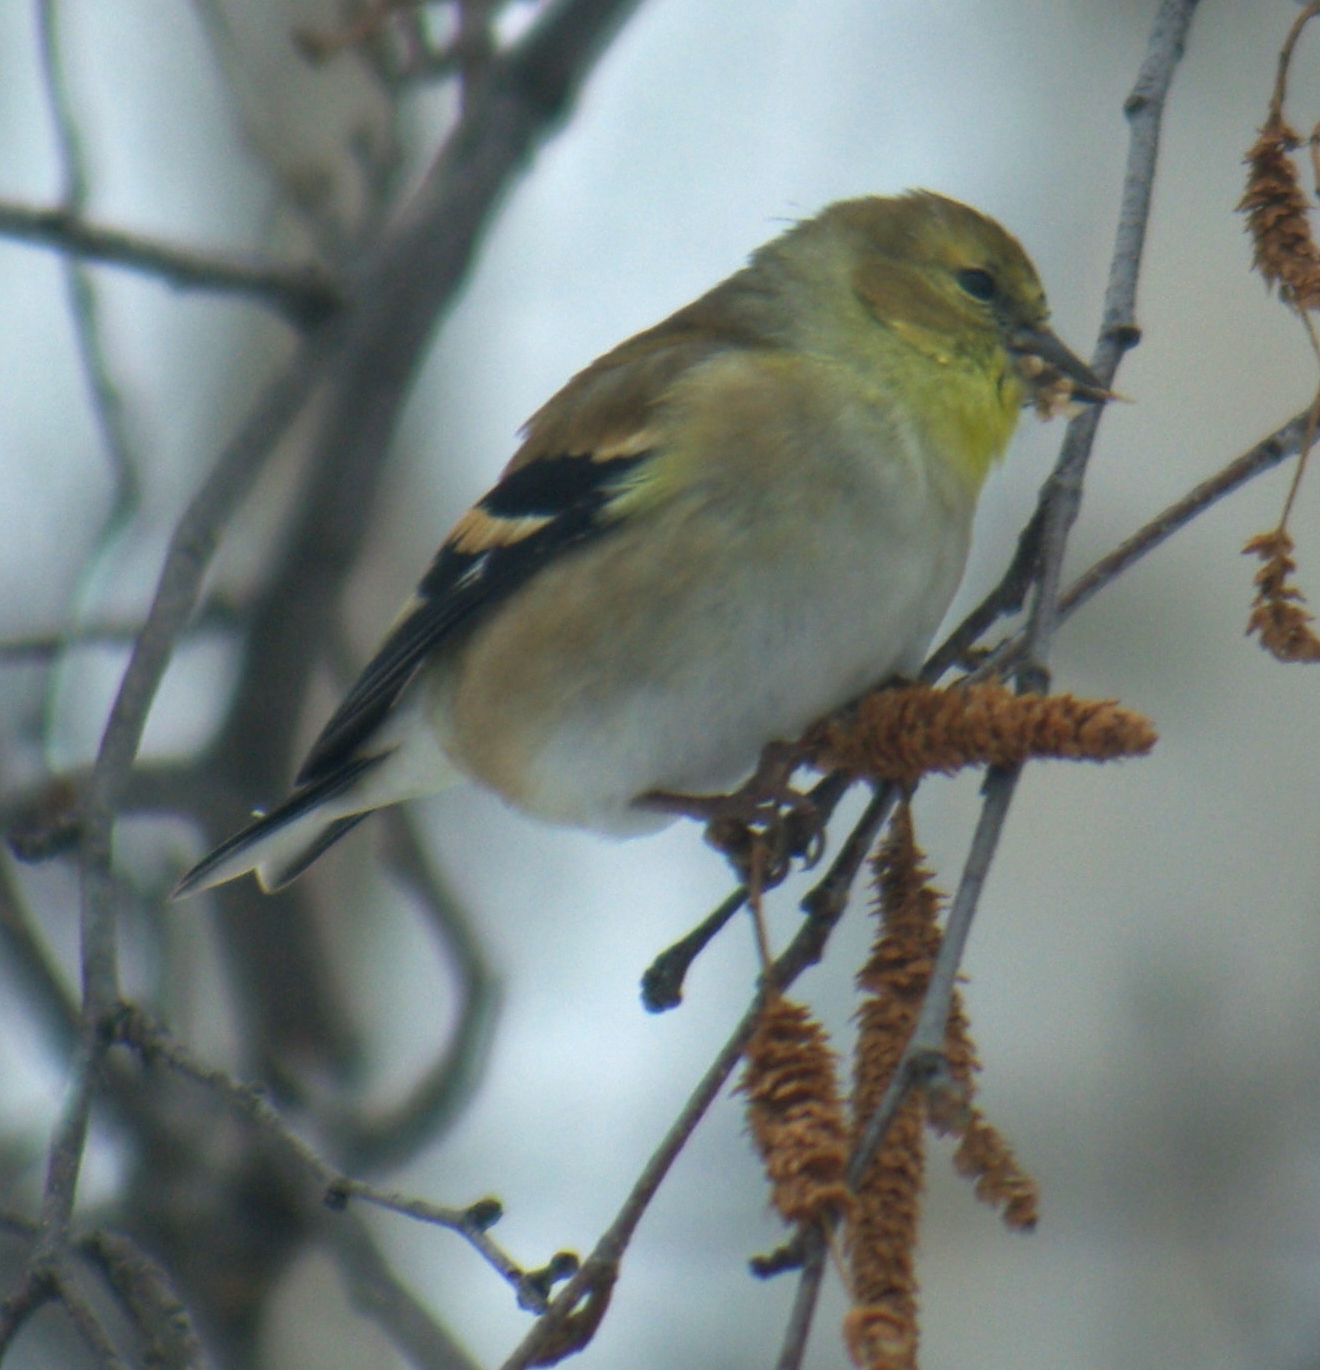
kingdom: Animalia
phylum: Chordata
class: Aves
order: Passeriformes
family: Fringillidae
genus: Spinus
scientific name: Spinus tristis
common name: American goldfinch
